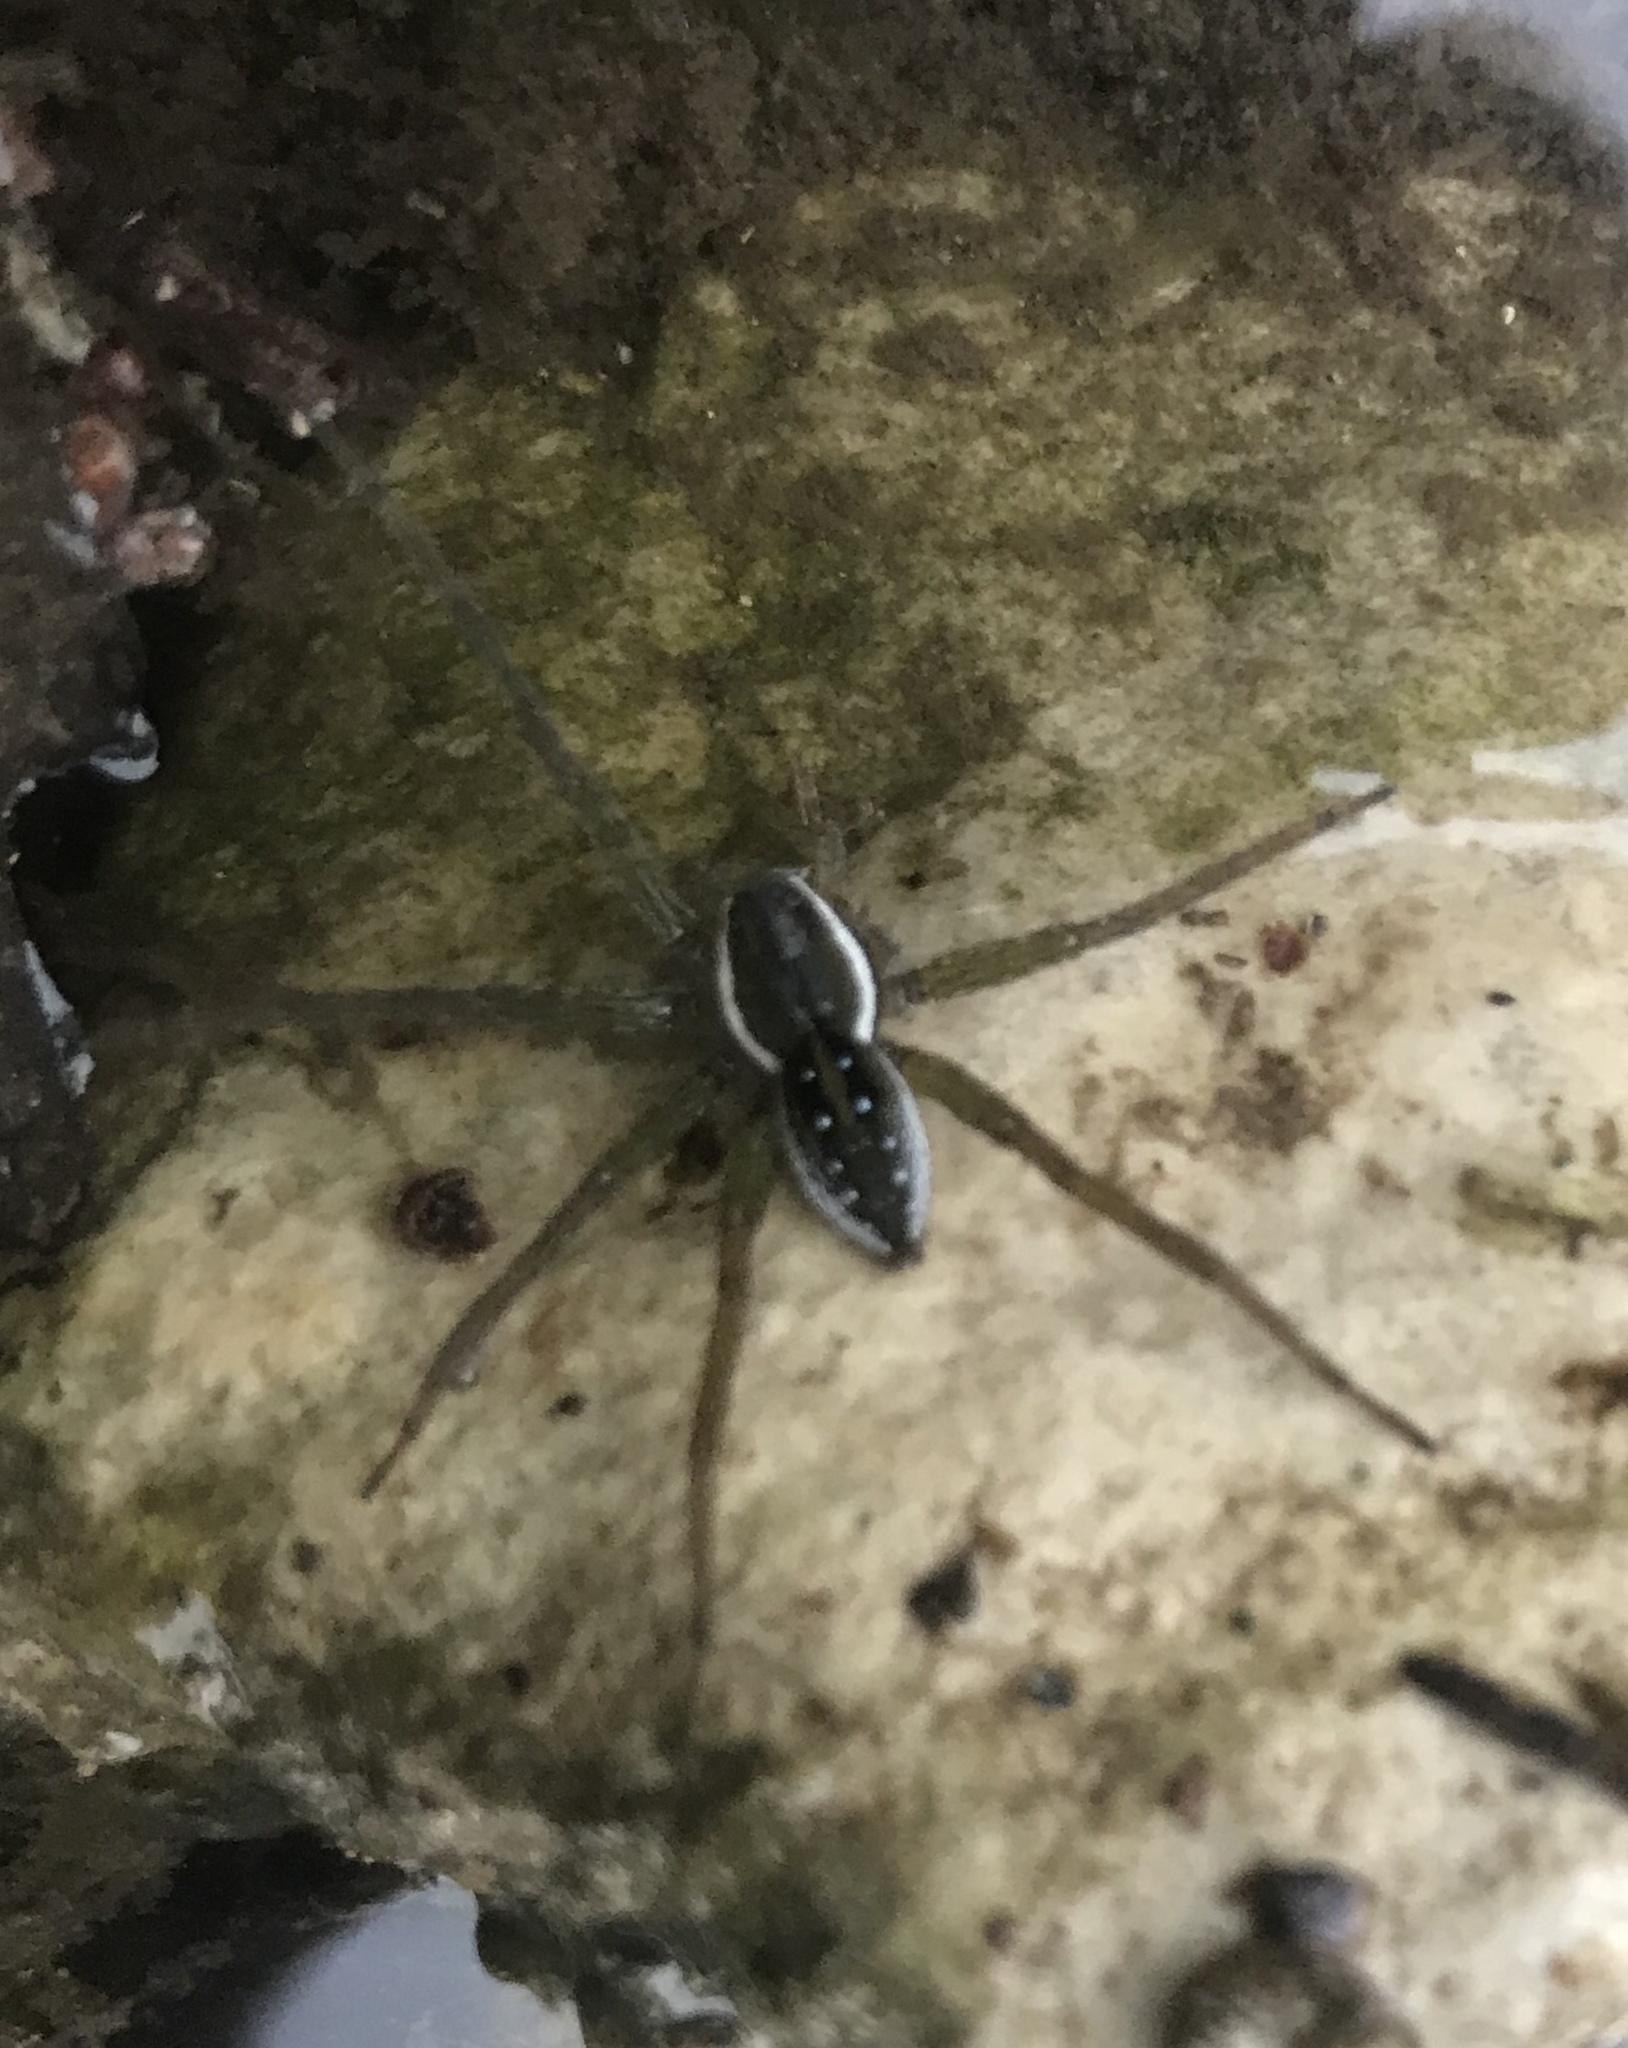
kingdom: Animalia
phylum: Arthropoda
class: Arachnida
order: Araneae
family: Pisauridae
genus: Dolomedes
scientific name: Dolomedes triton
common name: Six-spotted fishing spider
